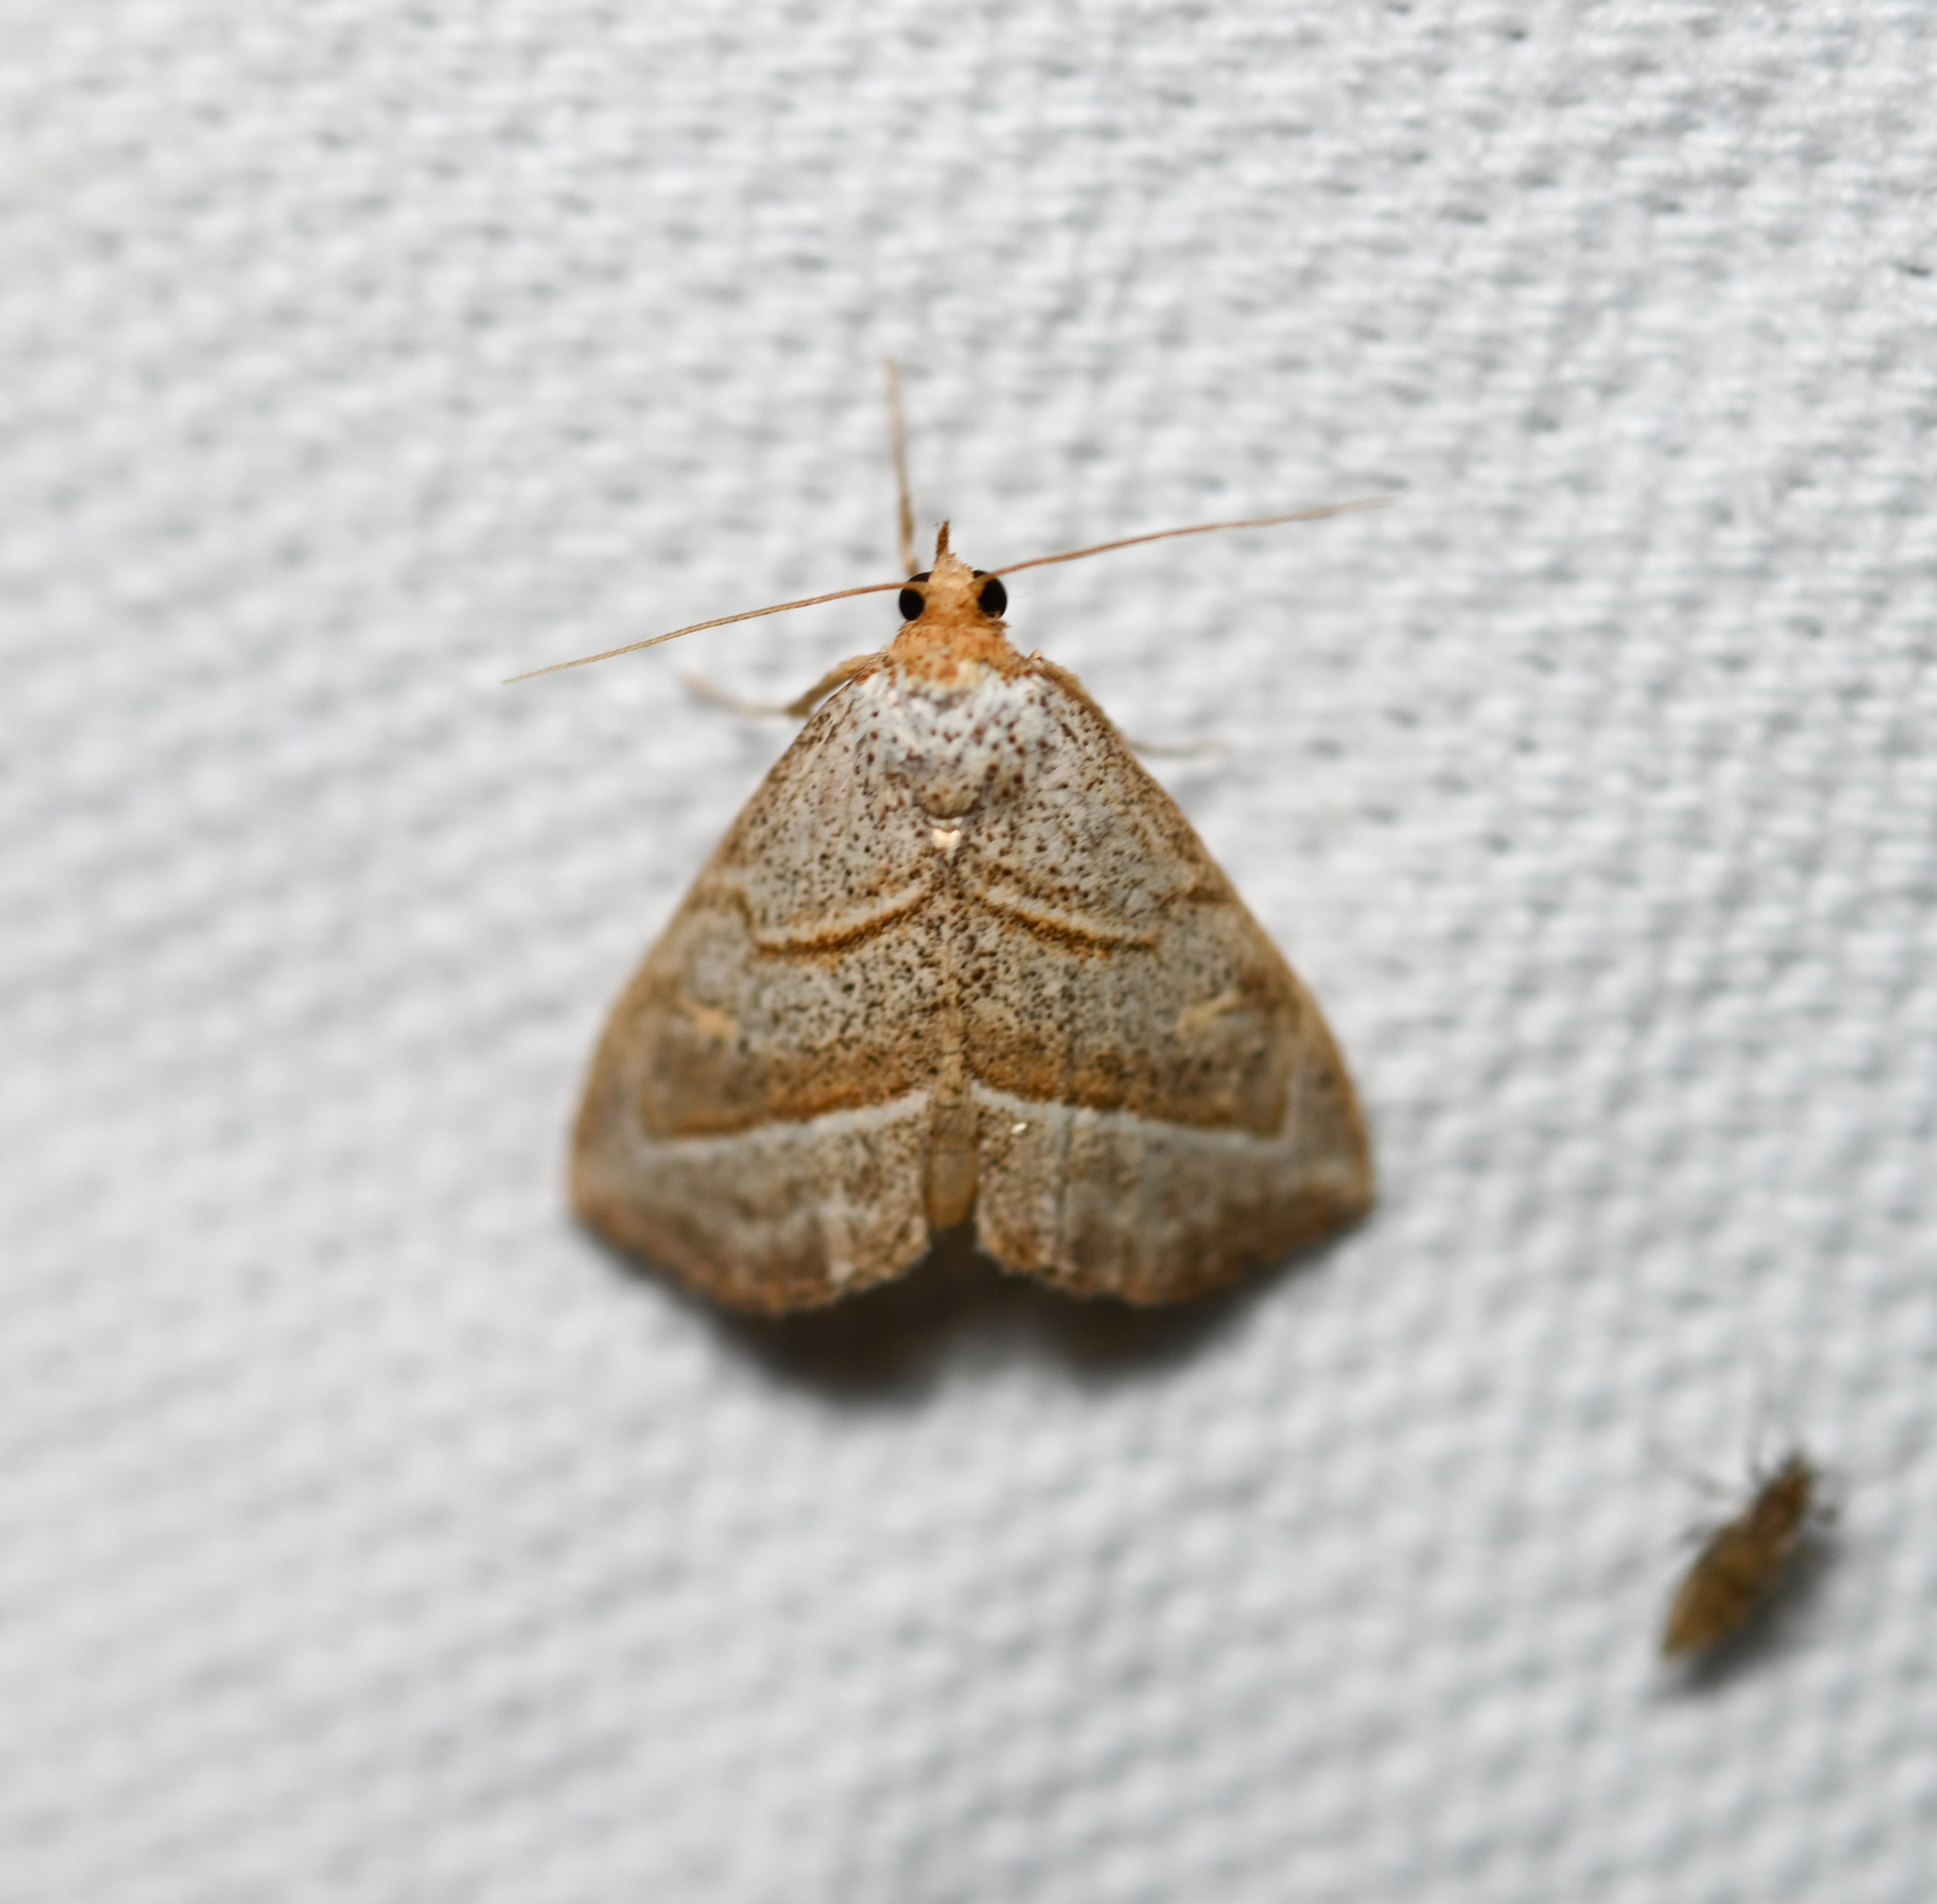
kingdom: Animalia
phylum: Arthropoda
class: Insecta
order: Lepidoptera
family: Erebidae
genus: Oxycilla
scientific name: Oxycilla mitographa
